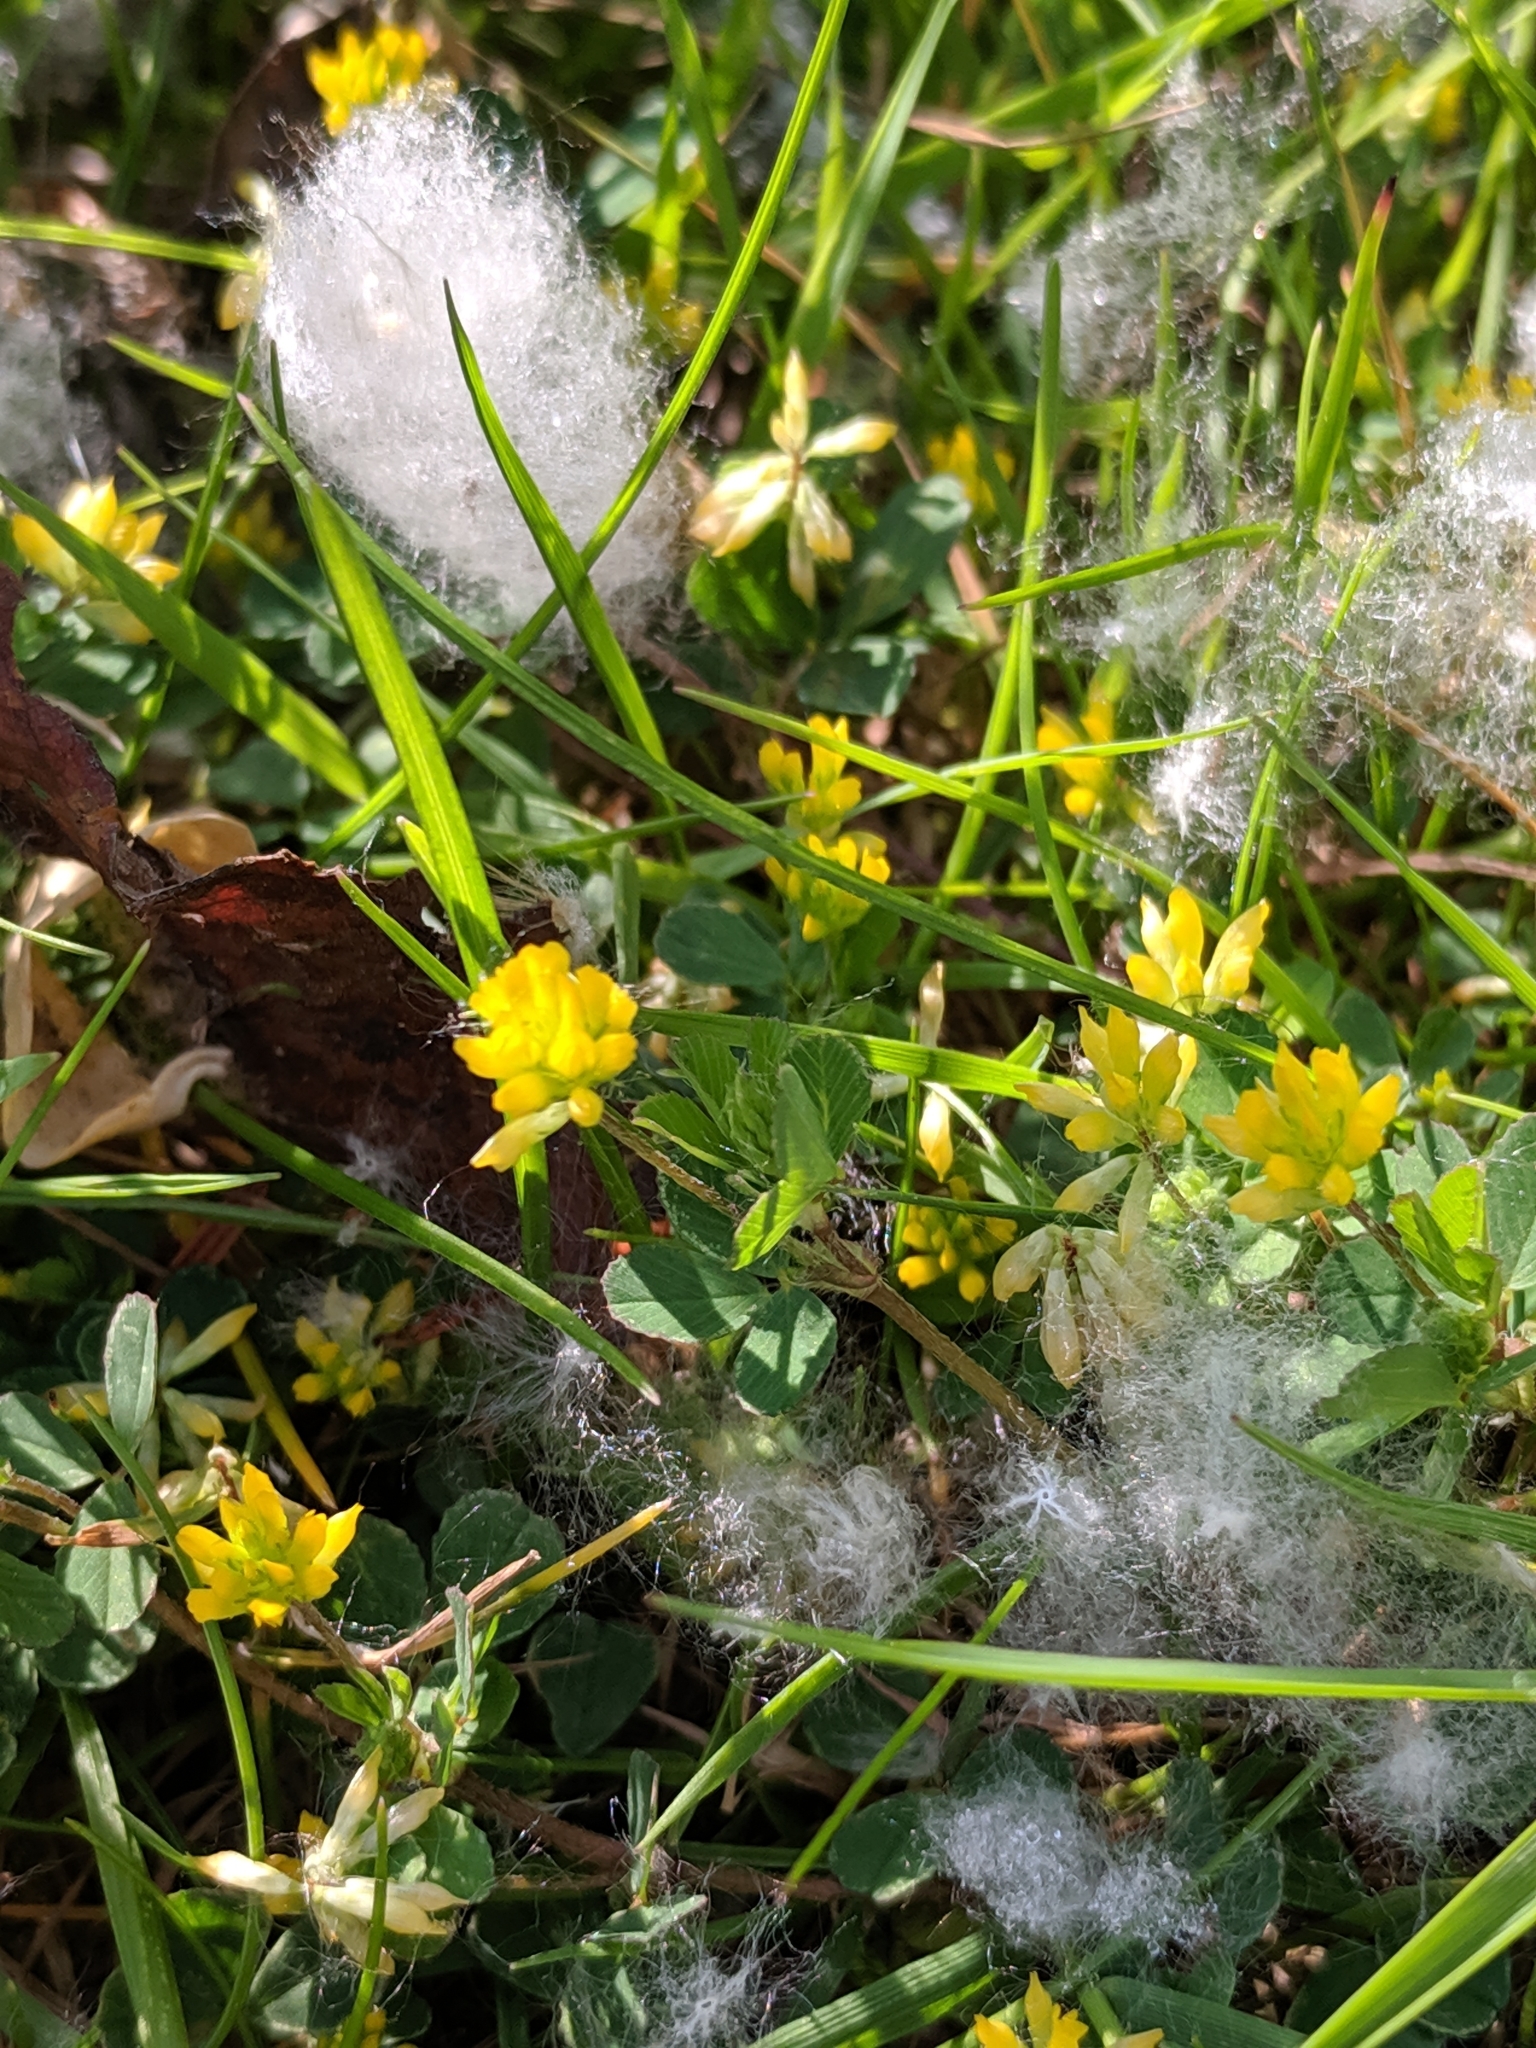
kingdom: Plantae
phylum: Tracheophyta
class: Magnoliopsida
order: Fabales
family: Fabaceae
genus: Trifolium
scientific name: Trifolium dubium
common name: Suckling clover
